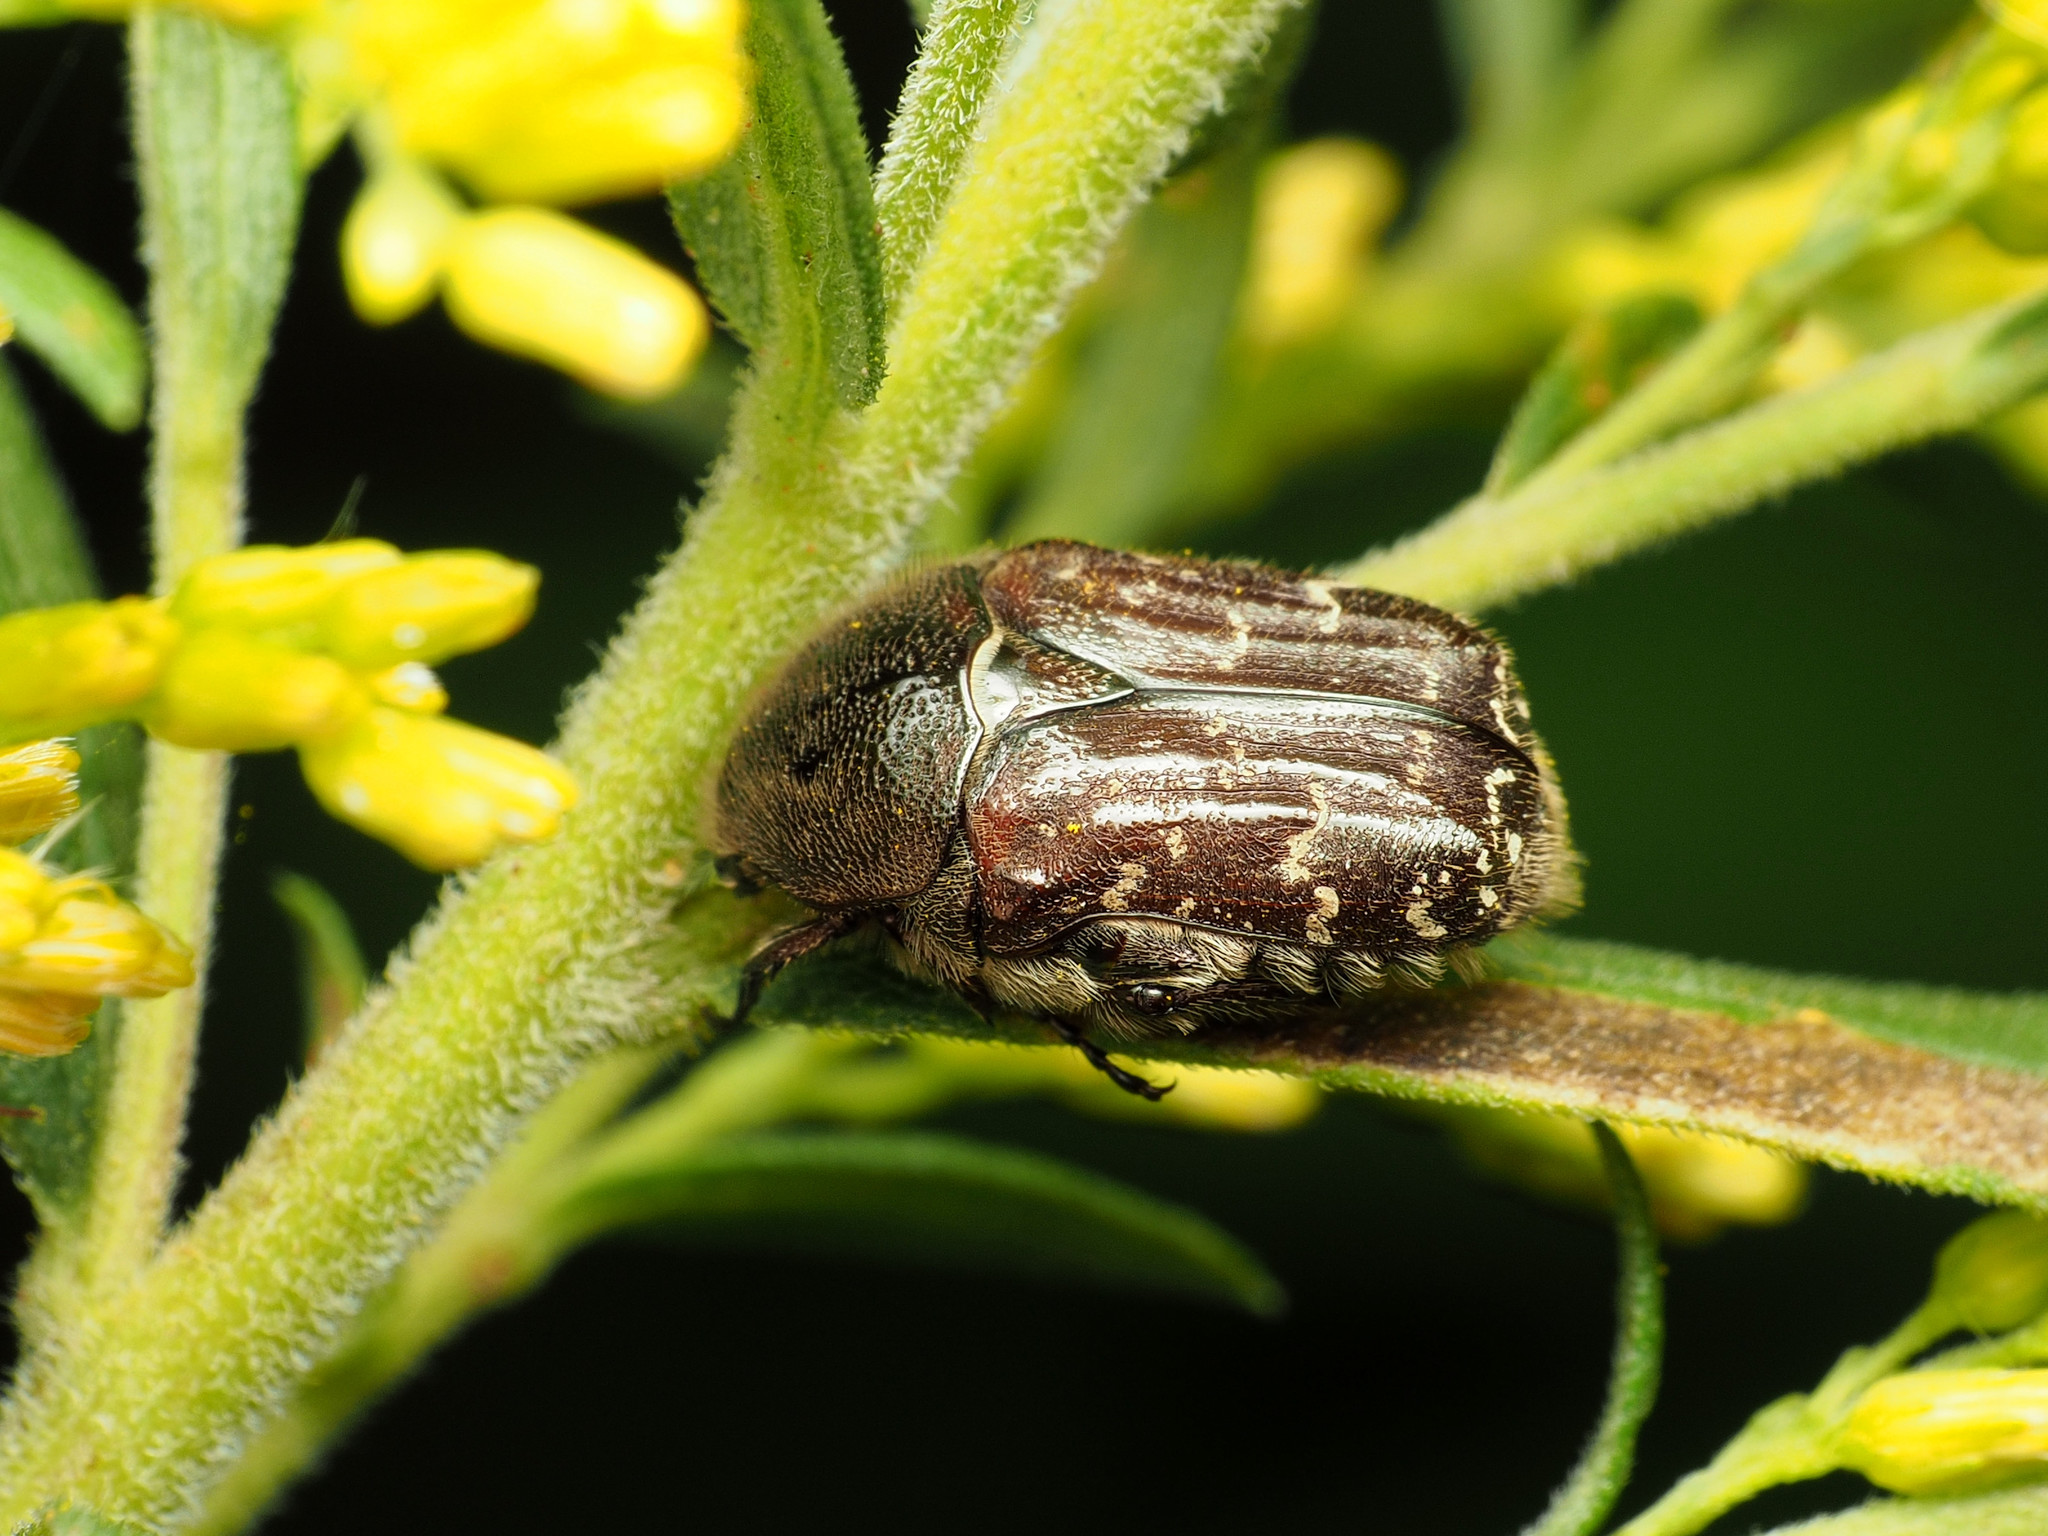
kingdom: Animalia
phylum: Arthropoda
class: Insecta
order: Coleoptera
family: Scarabaeidae
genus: Euphoria
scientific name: Euphoria sepulcralis
